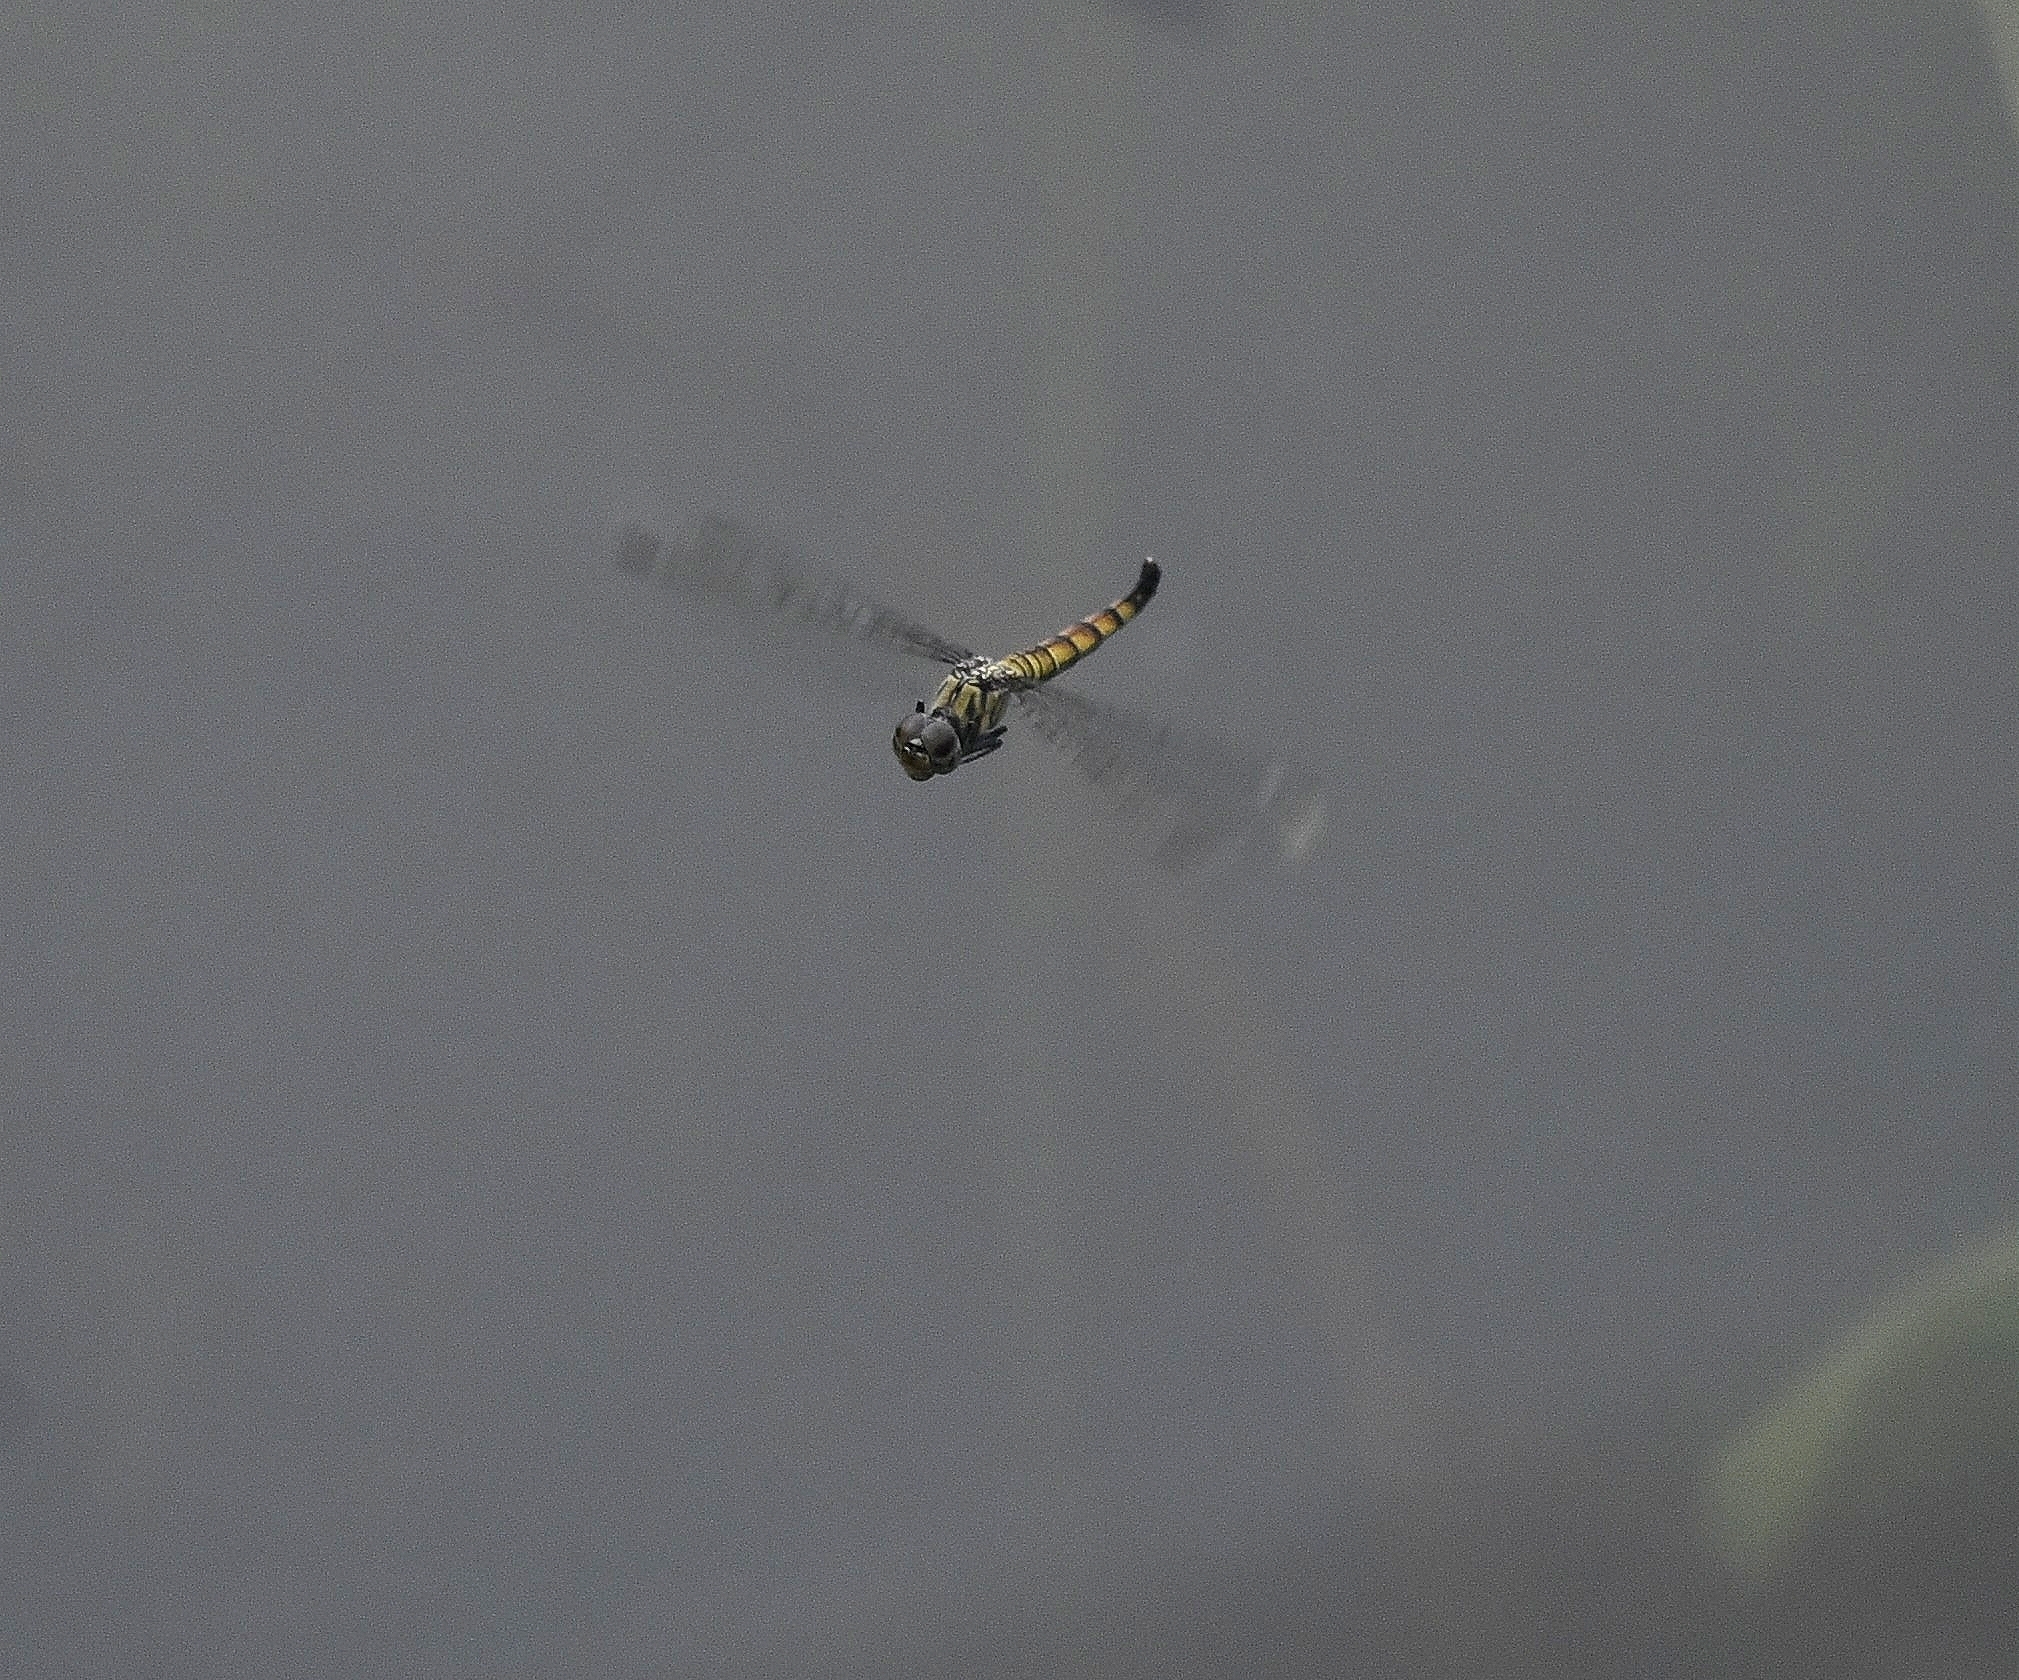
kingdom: Animalia
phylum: Arthropoda
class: Insecta
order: Odonata
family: Libellulidae
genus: Brachydiplax
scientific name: Brachydiplax chalybea
